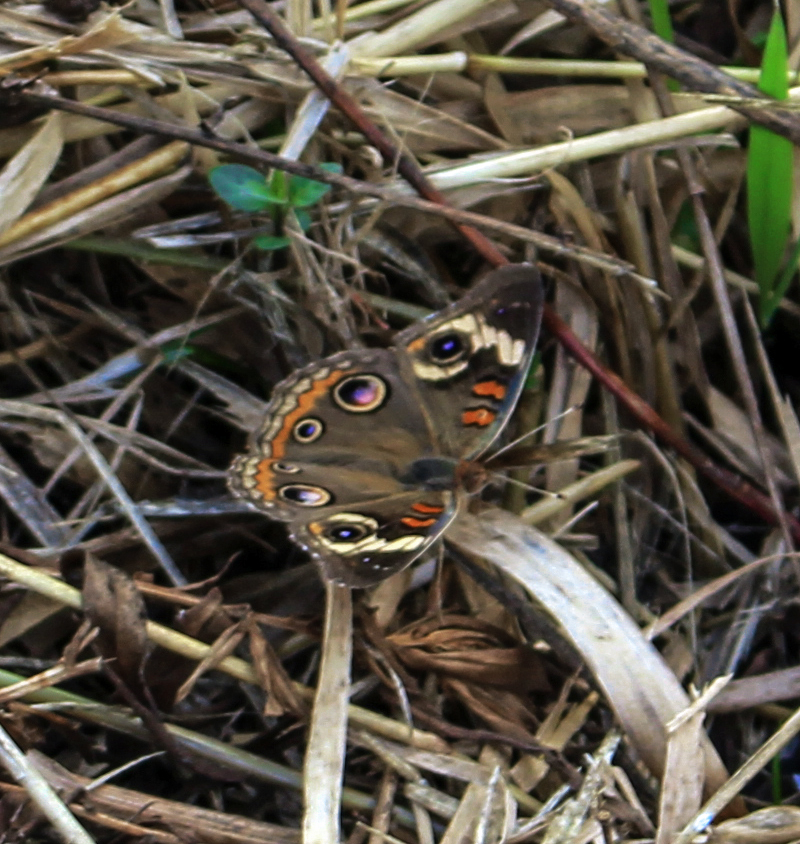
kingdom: Animalia
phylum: Arthropoda
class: Insecta
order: Lepidoptera
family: Nymphalidae
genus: Junonia
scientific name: Junonia coenia
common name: Common buckeye
